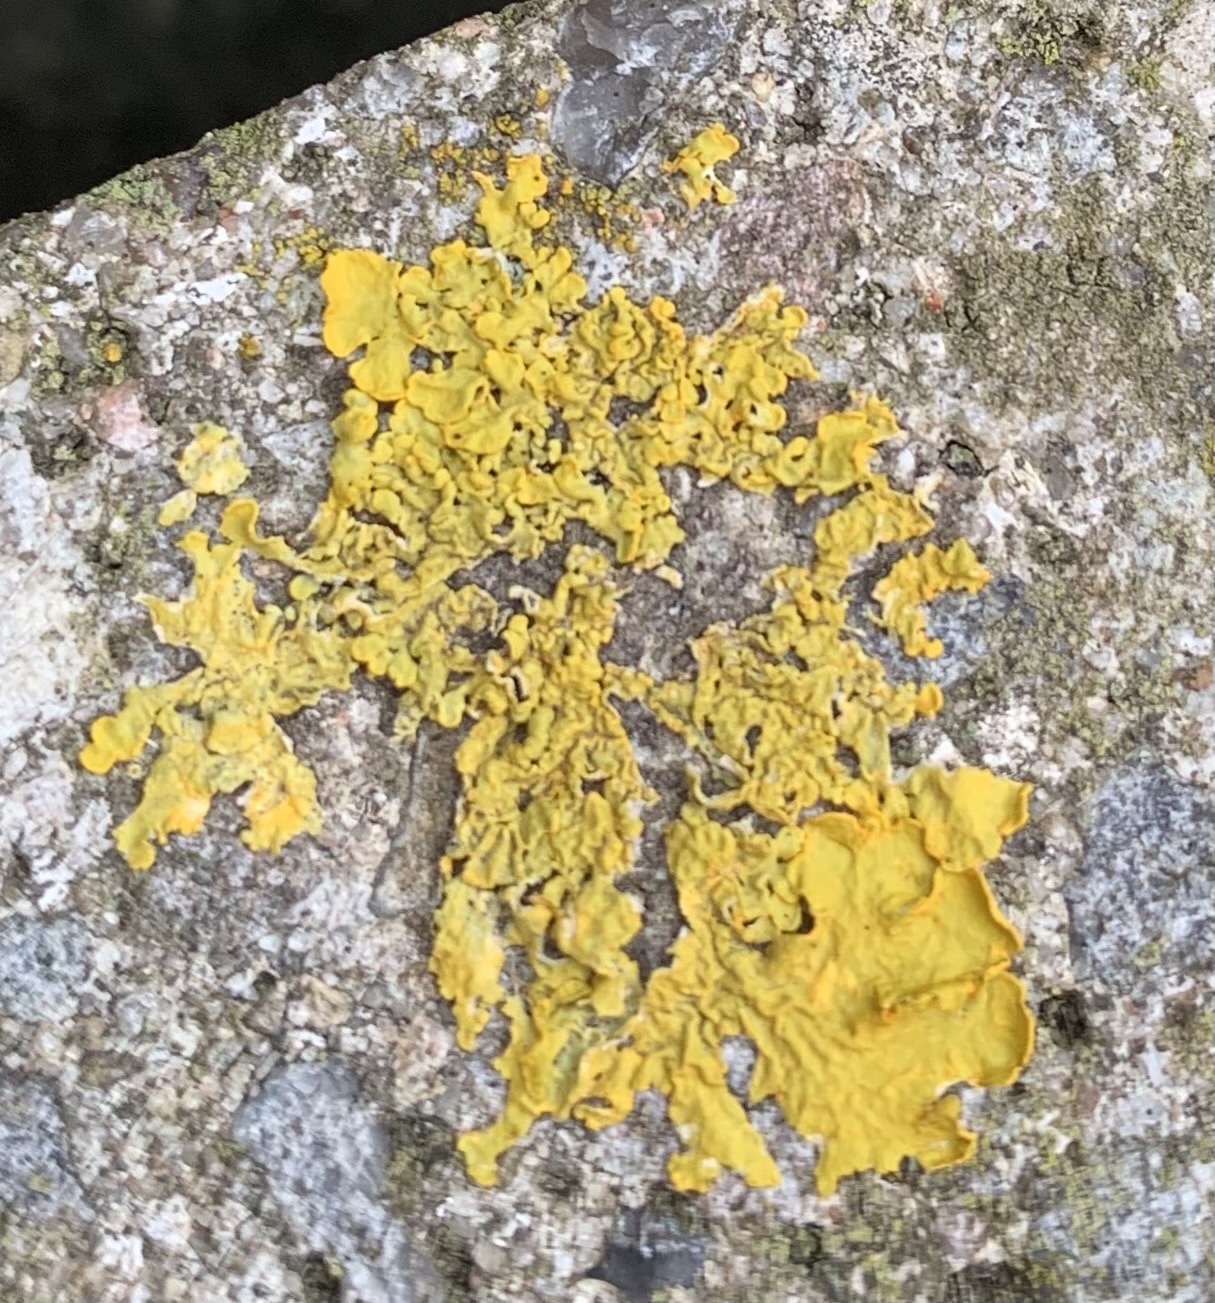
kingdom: Fungi
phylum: Ascomycota
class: Lecanoromycetes
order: Teloschistales
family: Teloschistaceae
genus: Xanthoria
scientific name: Xanthoria parietina
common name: Common orange lichen
